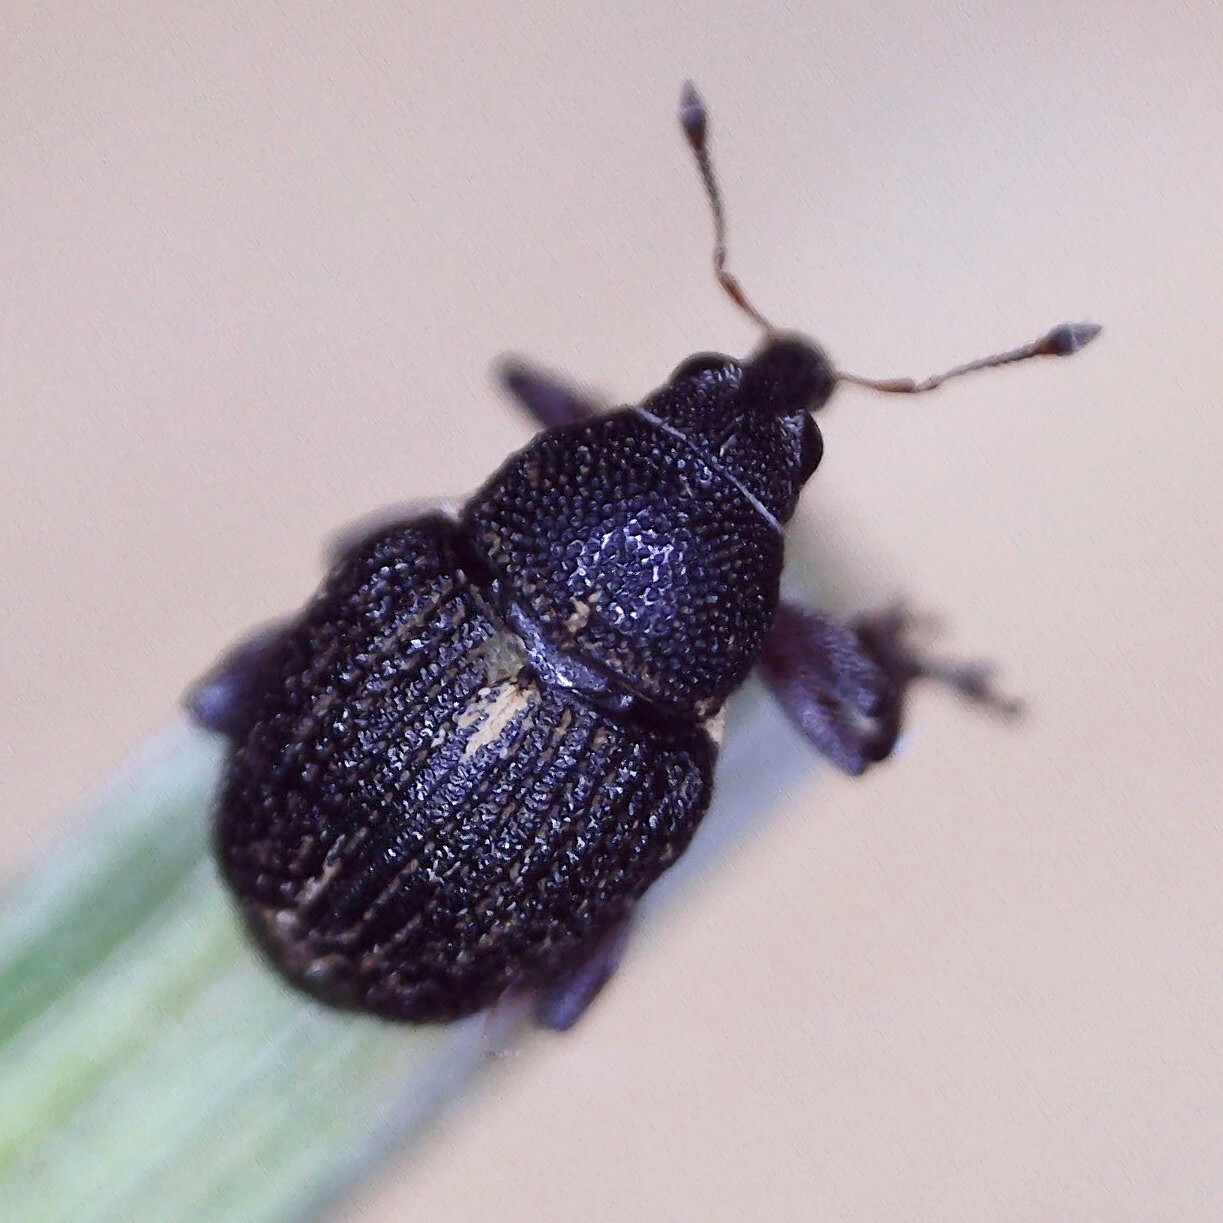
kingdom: Animalia
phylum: Arthropoda
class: Insecta
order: Coleoptera
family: Curculionidae
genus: Rhinoncus
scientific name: Rhinoncus leucostigma
